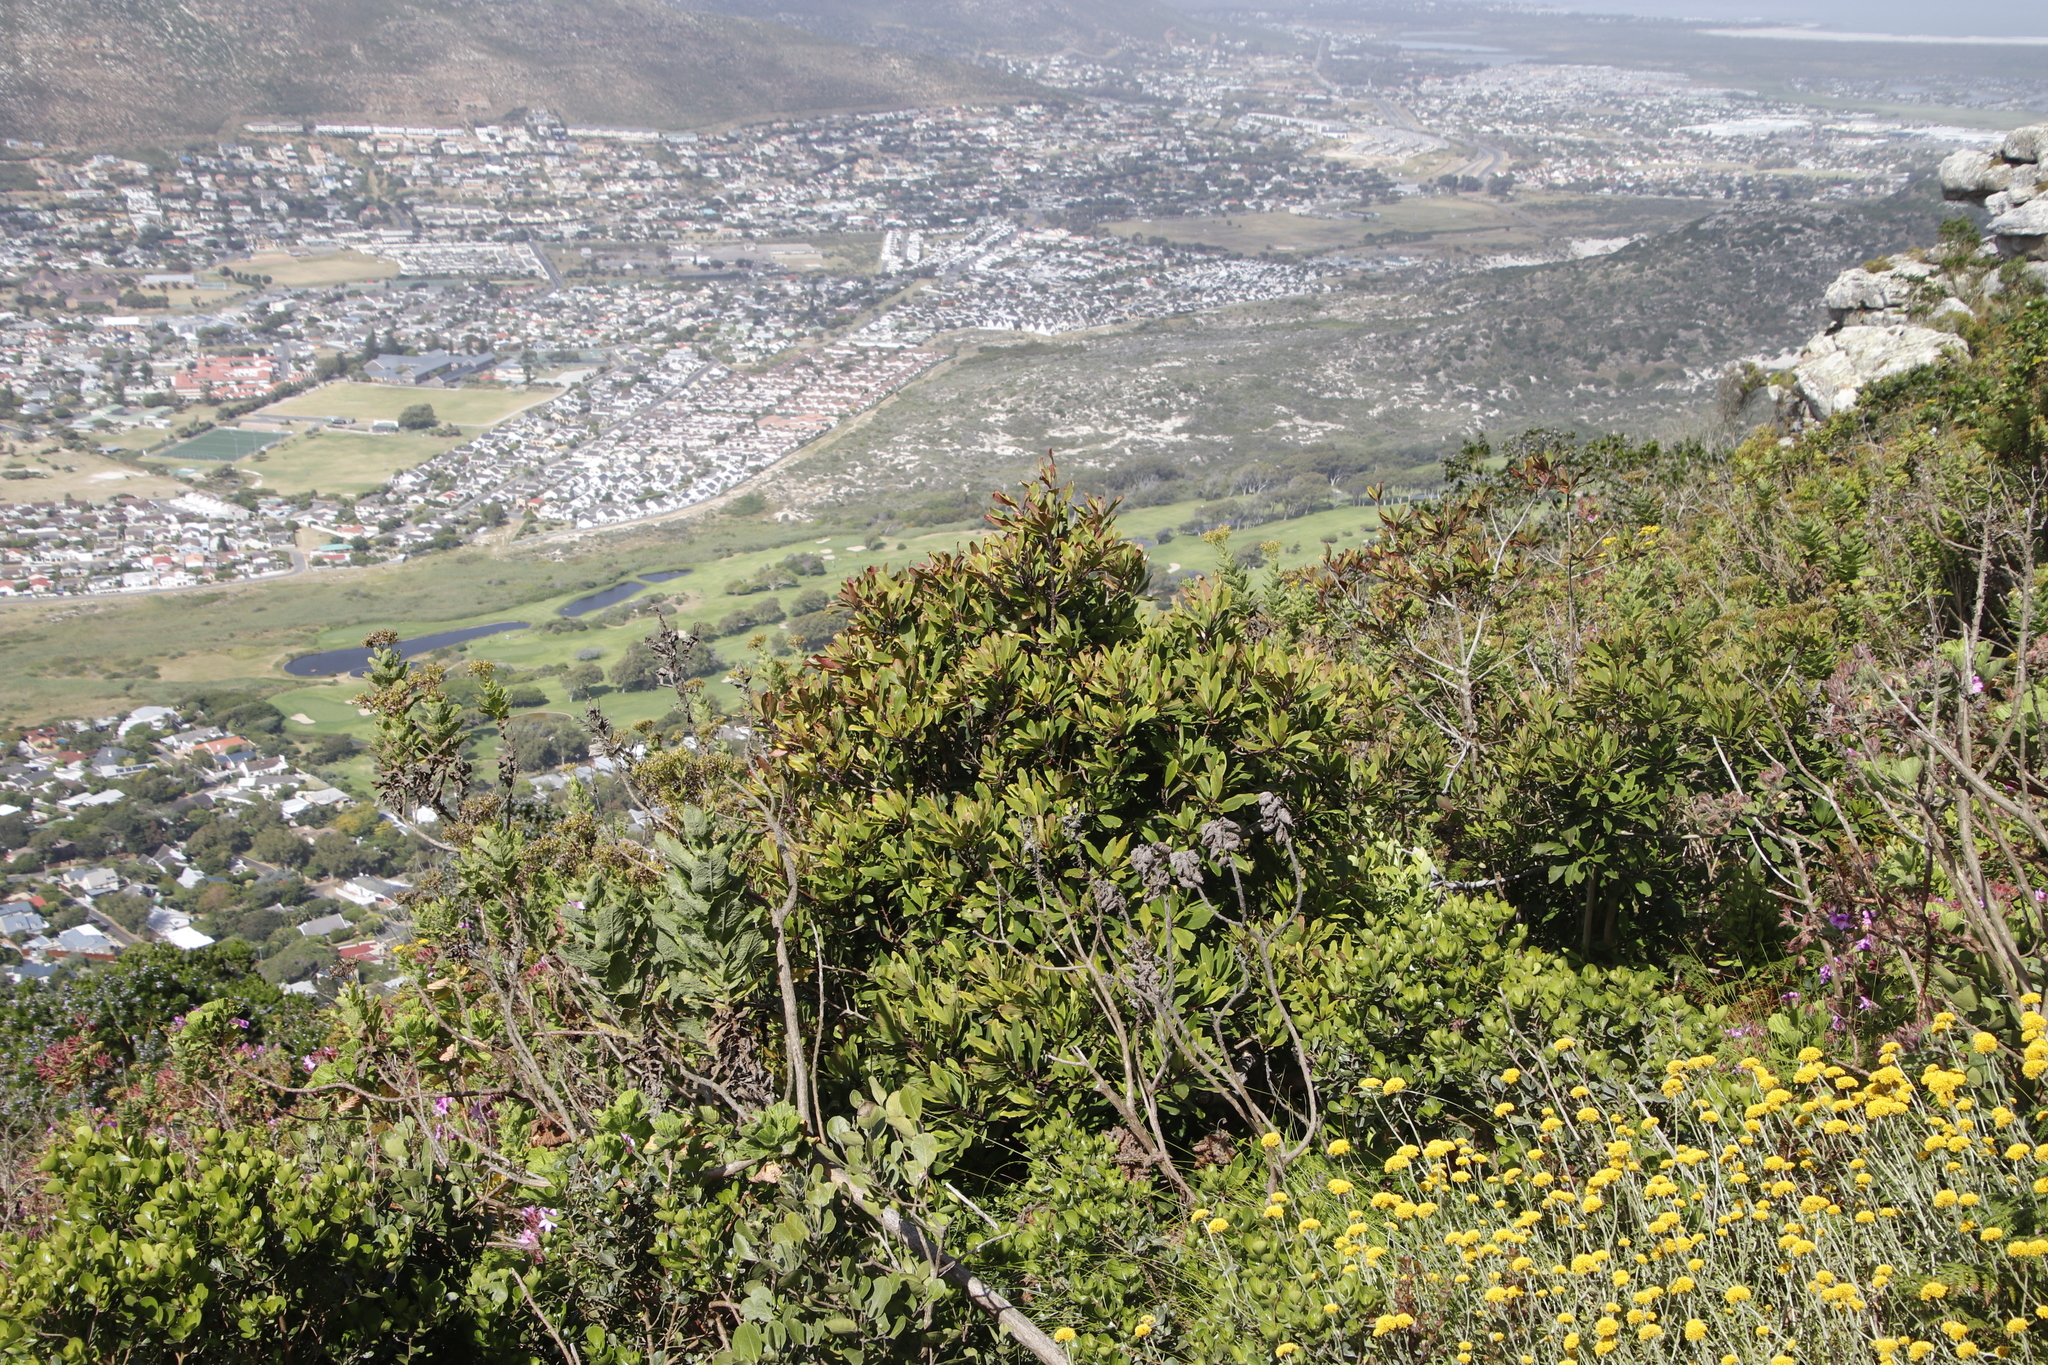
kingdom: Plantae
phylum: Tracheophyta
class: Magnoliopsida
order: Ericales
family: Primulaceae
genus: Myrsine
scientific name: Myrsine melanophloeos
